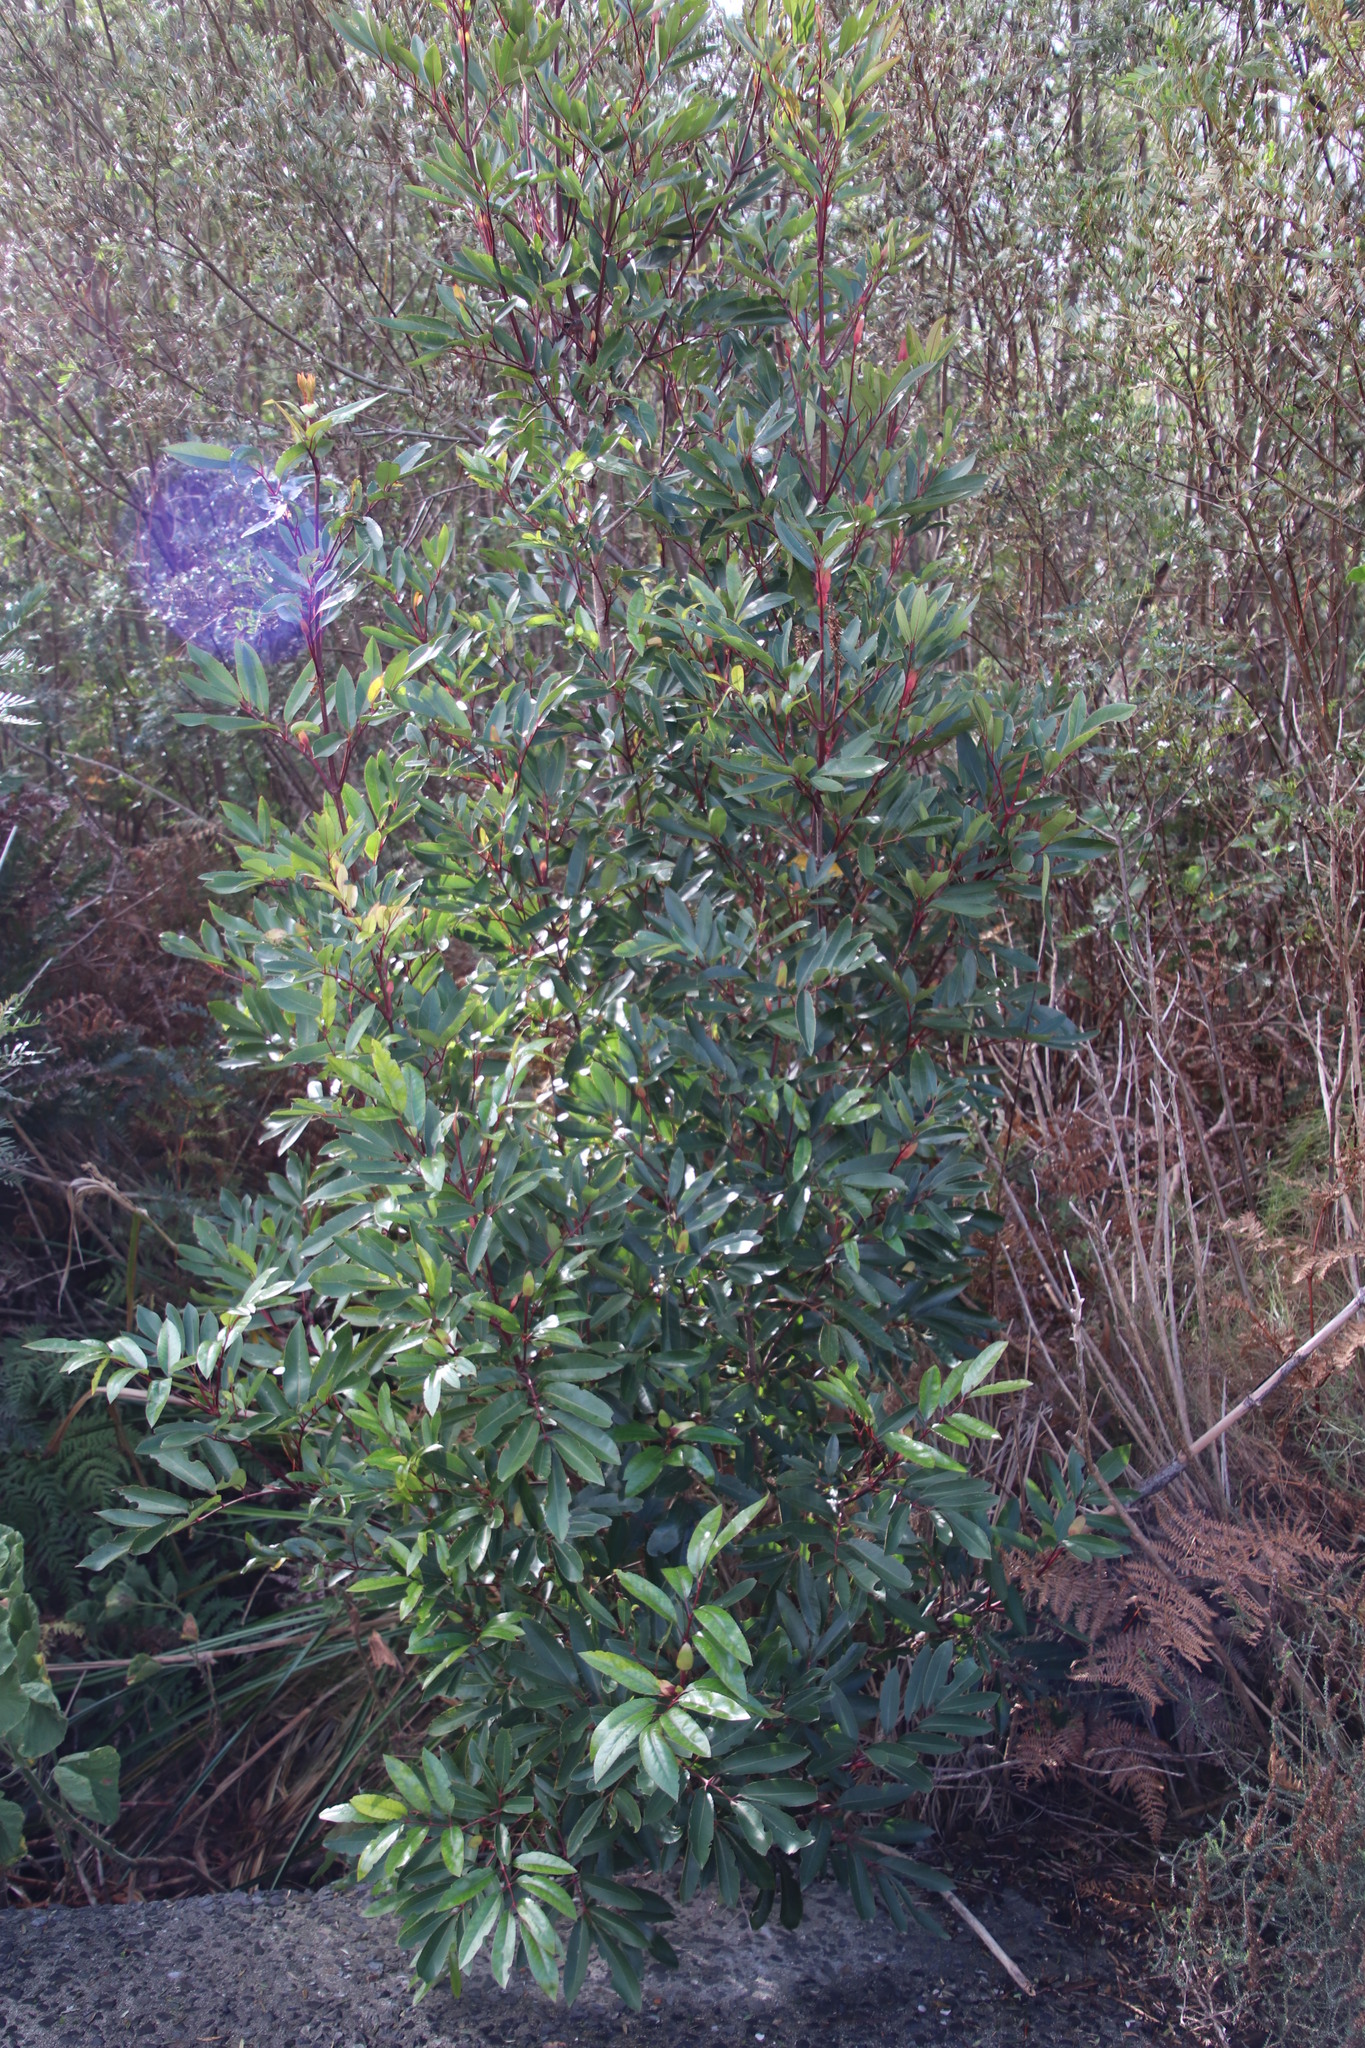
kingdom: Plantae
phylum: Tracheophyta
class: Magnoliopsida
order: Oxalidales
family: Cunoniaceae
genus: Cunonia
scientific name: Cunonia capensis
